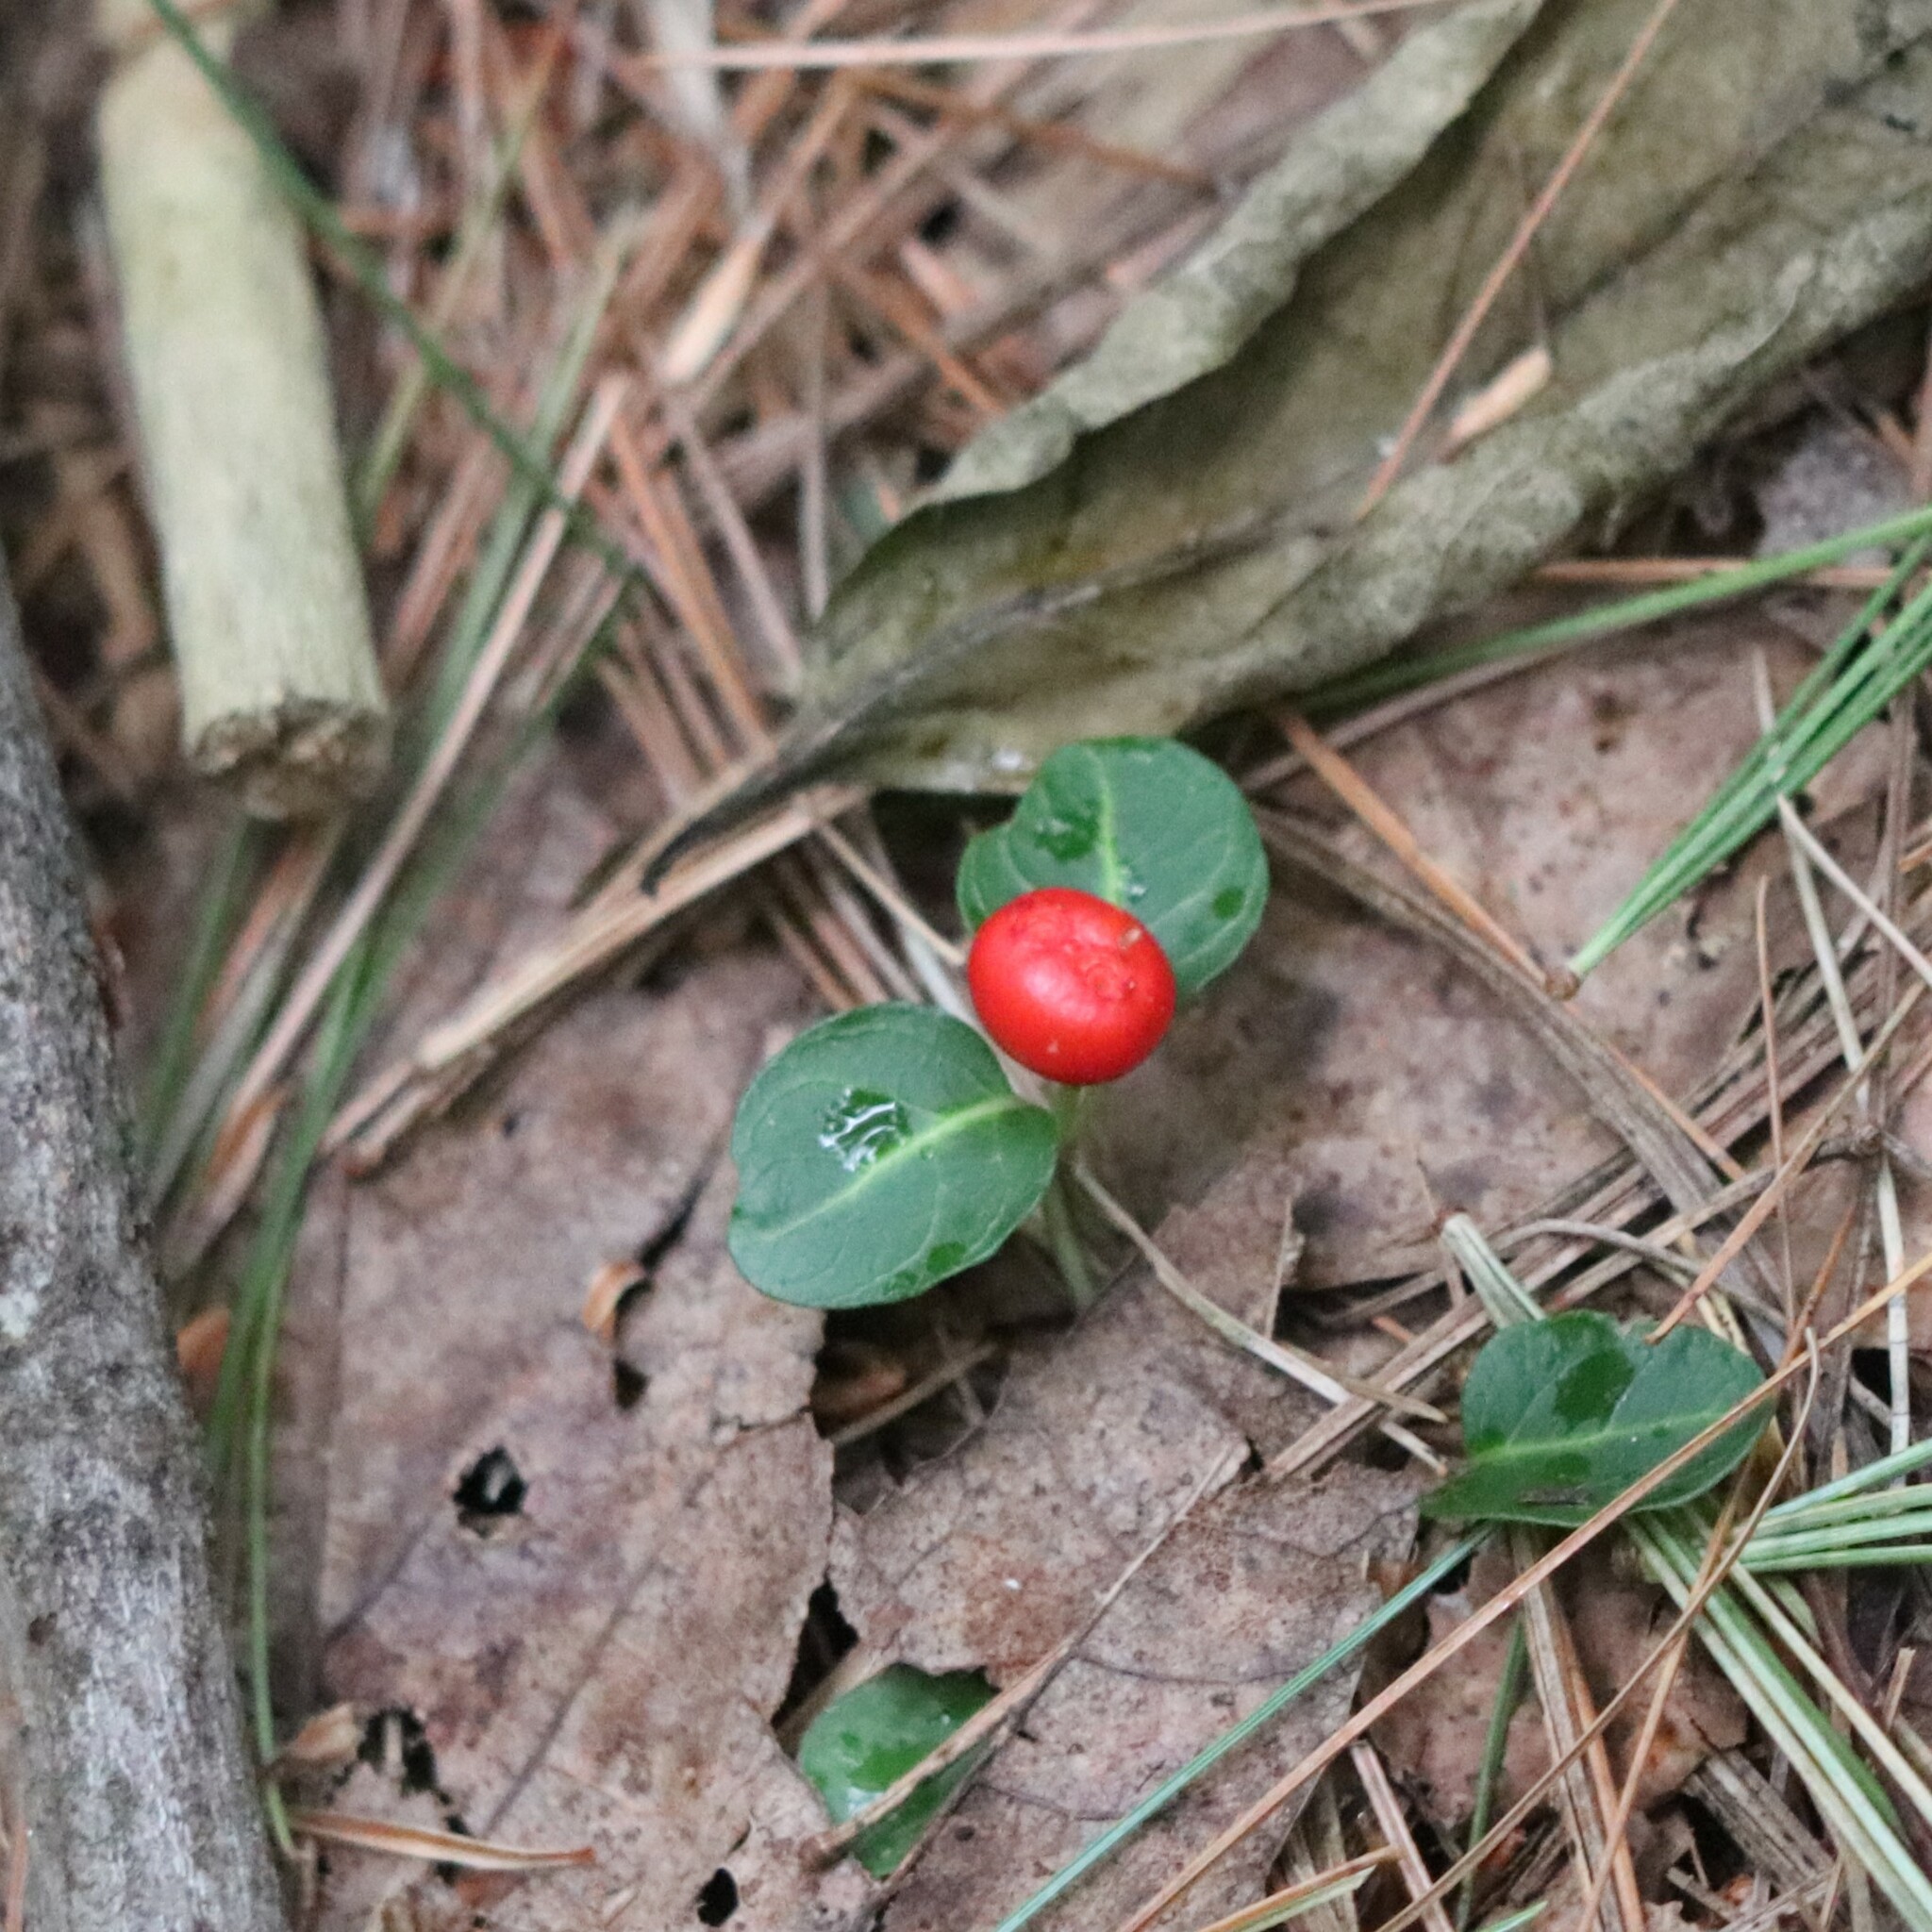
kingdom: Plantae
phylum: Tracheophyta
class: Magnoliopsida
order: Gentianales
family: Rubiaceae
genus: Mitchella
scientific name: Mitchella repens
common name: Partridge-berry
